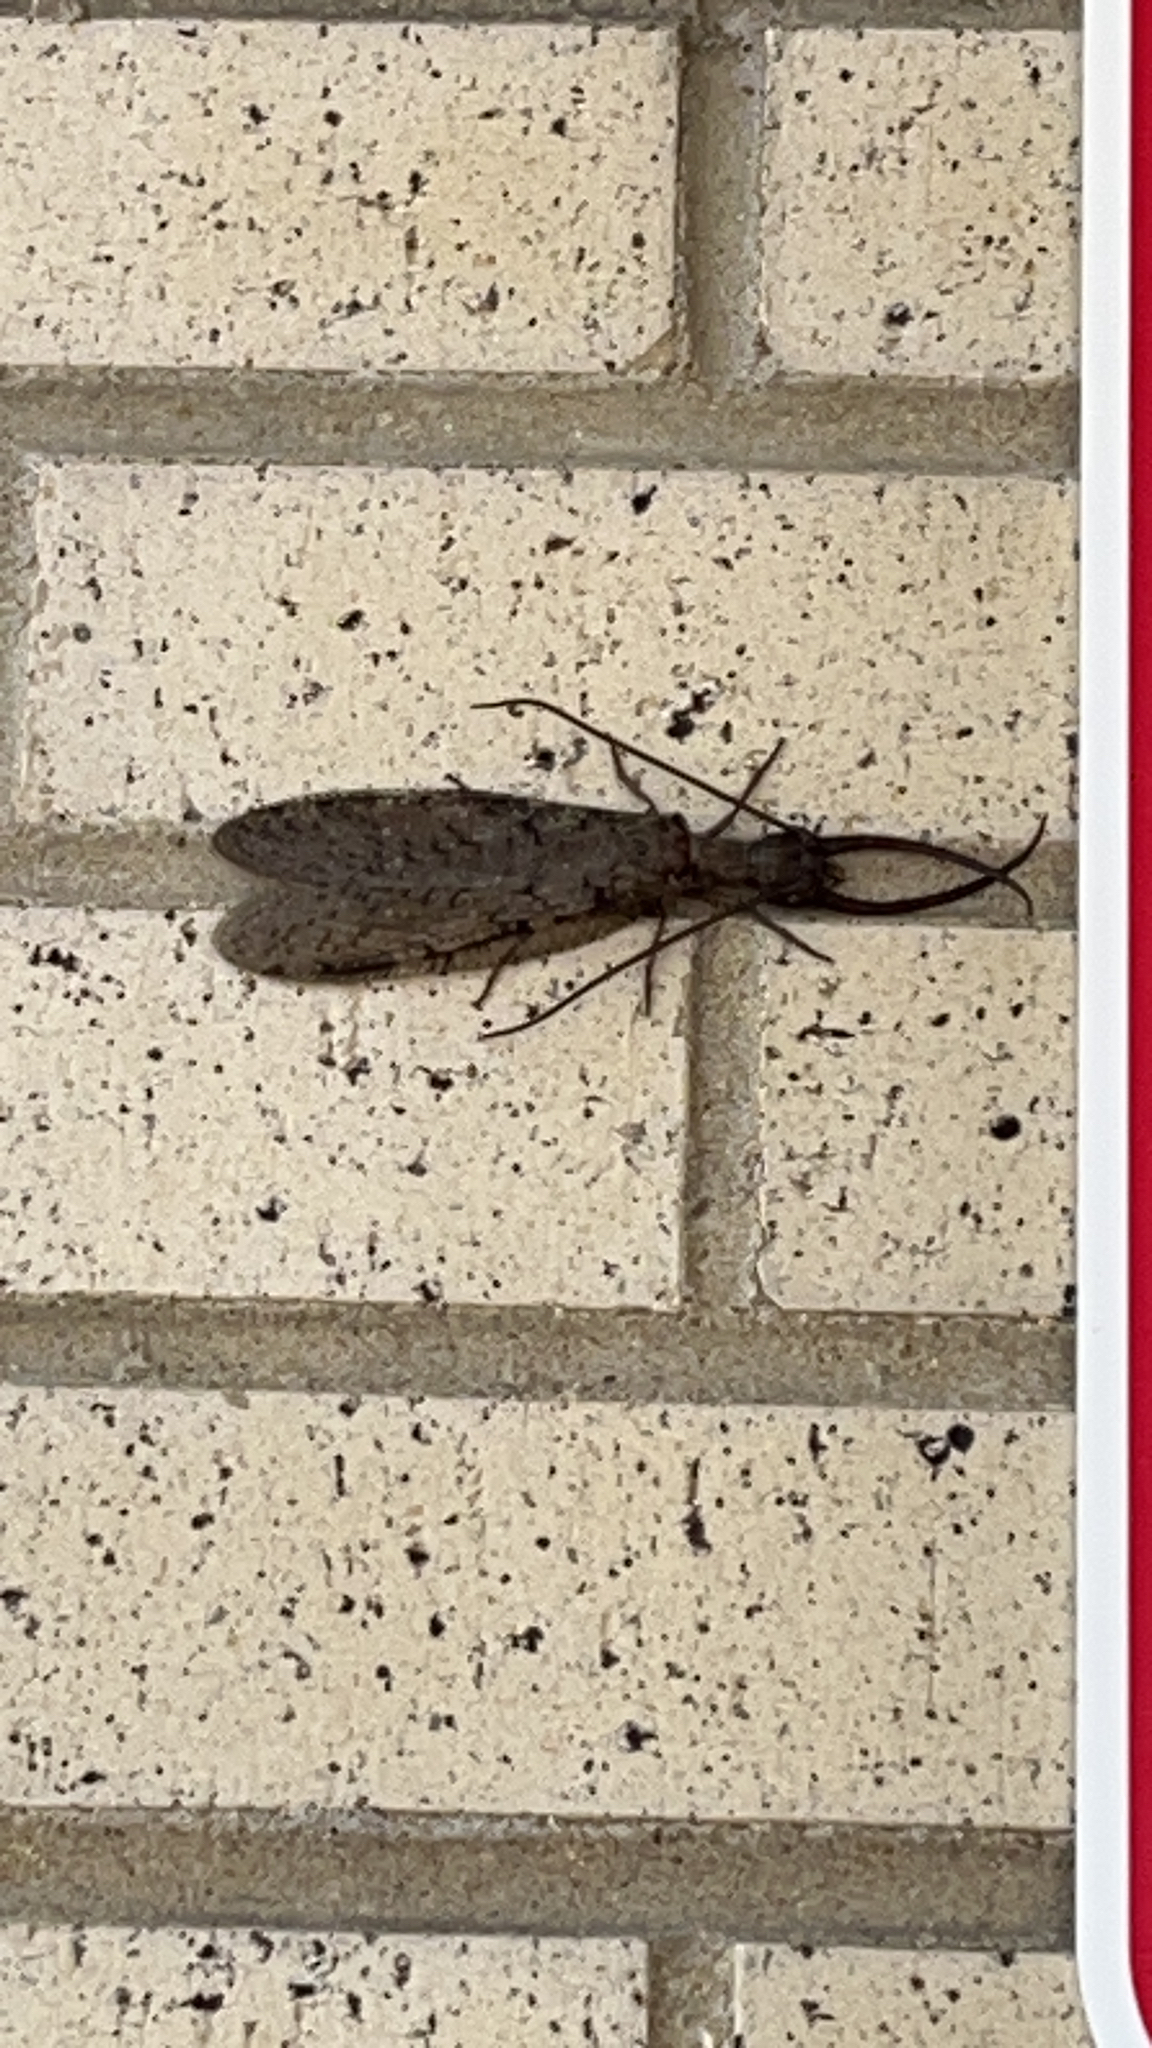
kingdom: Animalia
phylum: Arthropoda
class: Insecta
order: Megaloptera
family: Corydalidae
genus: Corydalus
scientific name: Corydalus cornutus
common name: Dobsonfly
